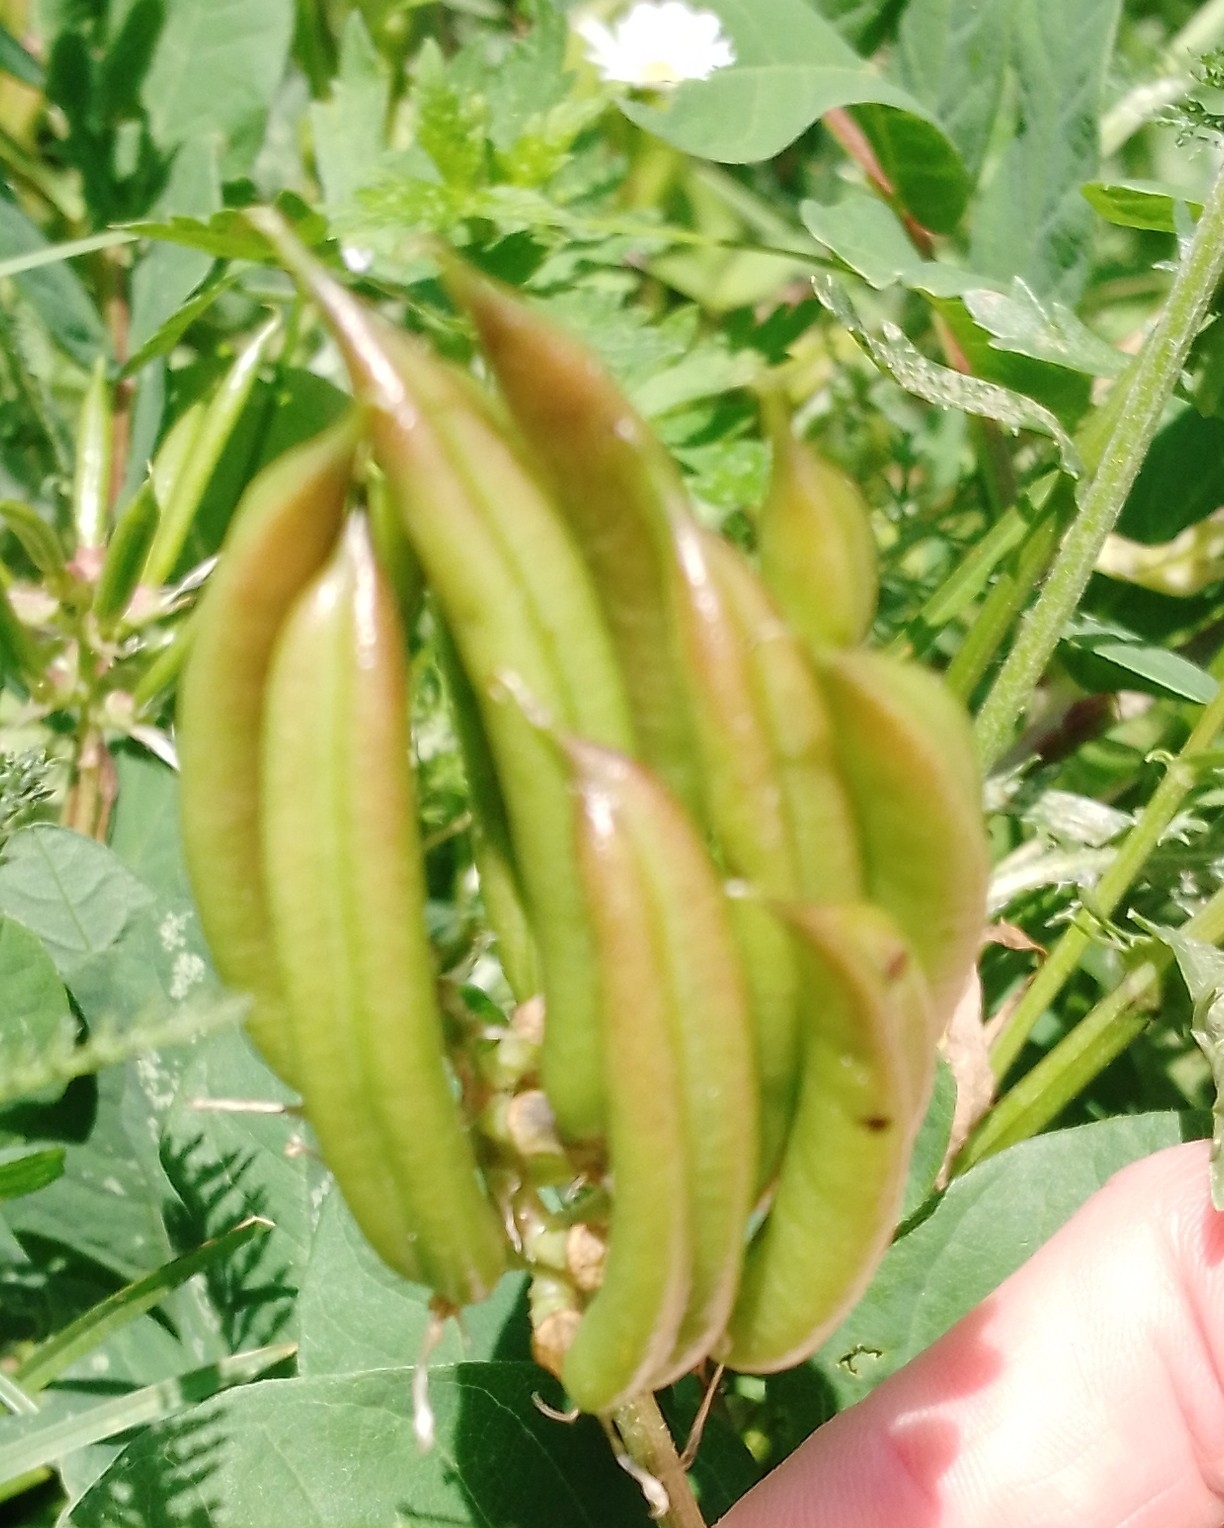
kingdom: Plantae
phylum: Tracheophyta
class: Magnoliopsida
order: Fabales
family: Fabaceae
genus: Astragalus
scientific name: Astragalus glycyphyllos
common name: Wild liquorice
